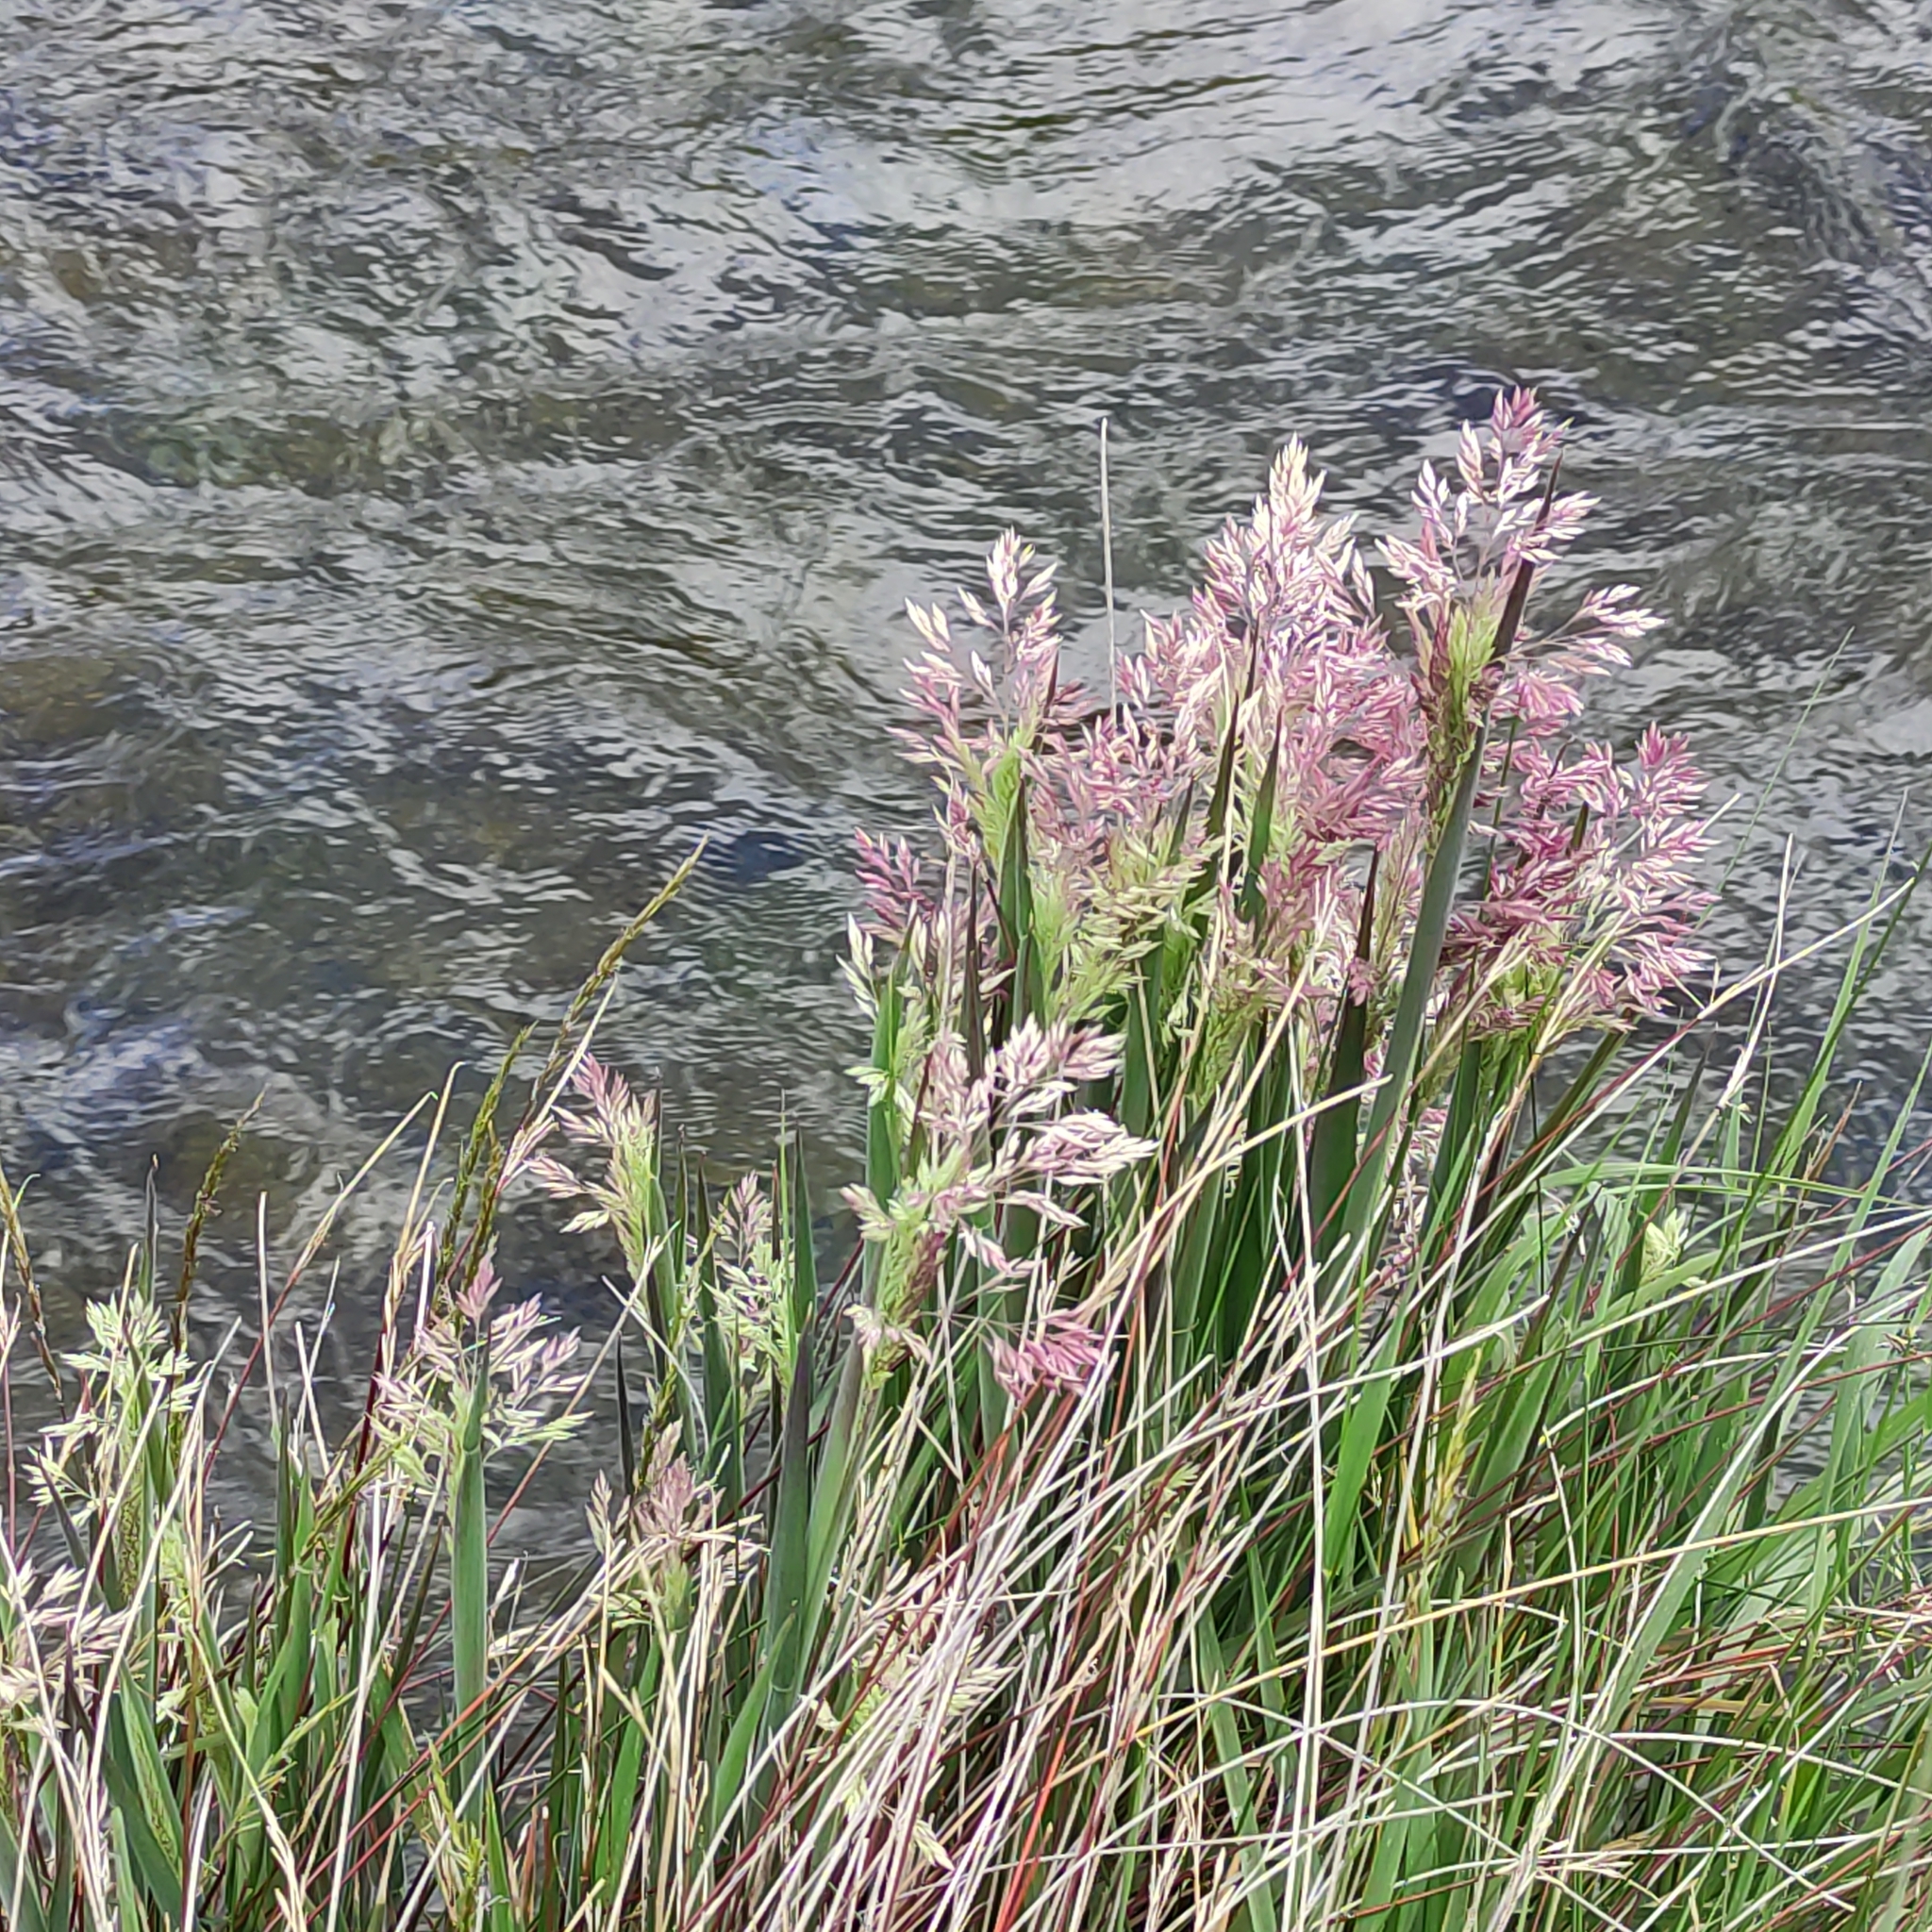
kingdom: Plantae
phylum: Tracheophyta
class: Liliopsida
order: Poales
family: Poaceae
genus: Holcus
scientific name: Holcus lanatus
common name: Yorkshire-fog
